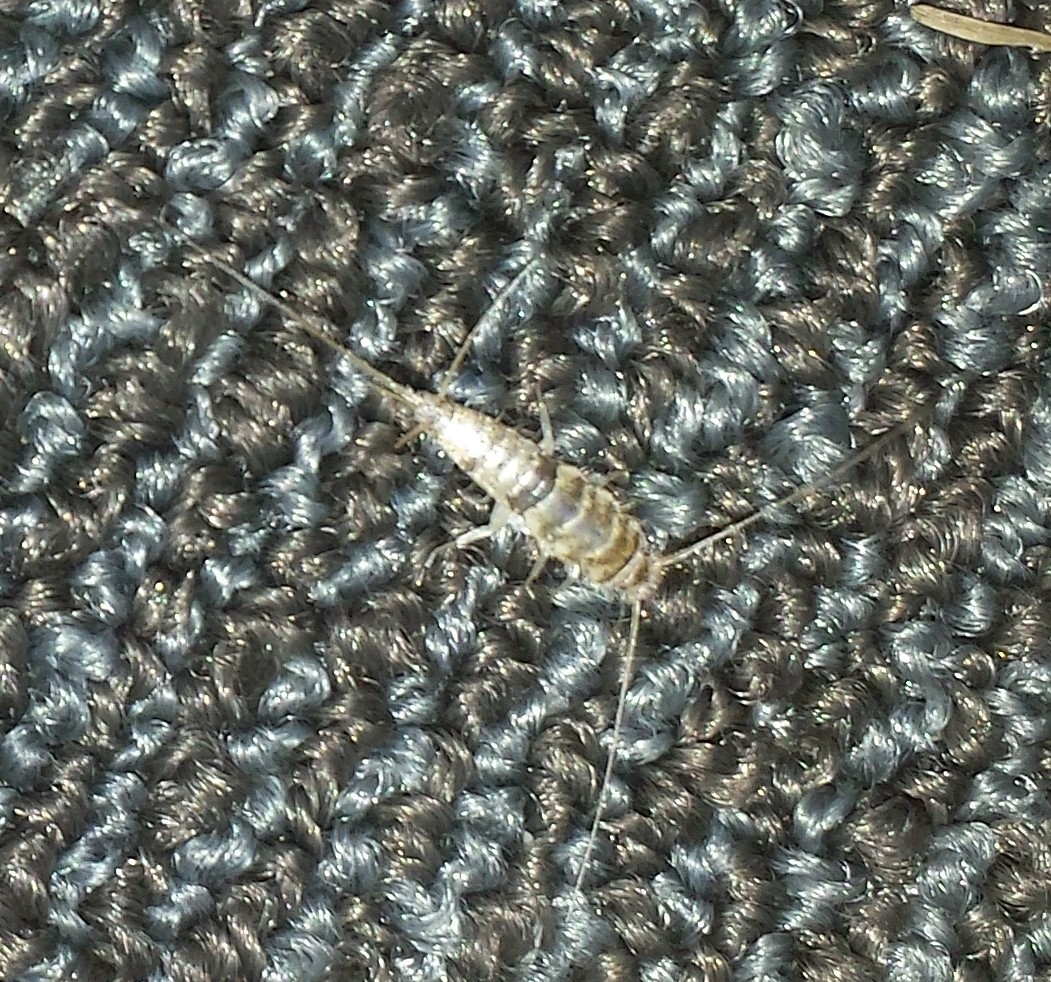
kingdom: Animalia
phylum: Arthropoda
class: Insecta
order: Zygentoma
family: Lepismatidae
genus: Thermobia
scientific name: Thermobia domestica
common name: Firebrat
